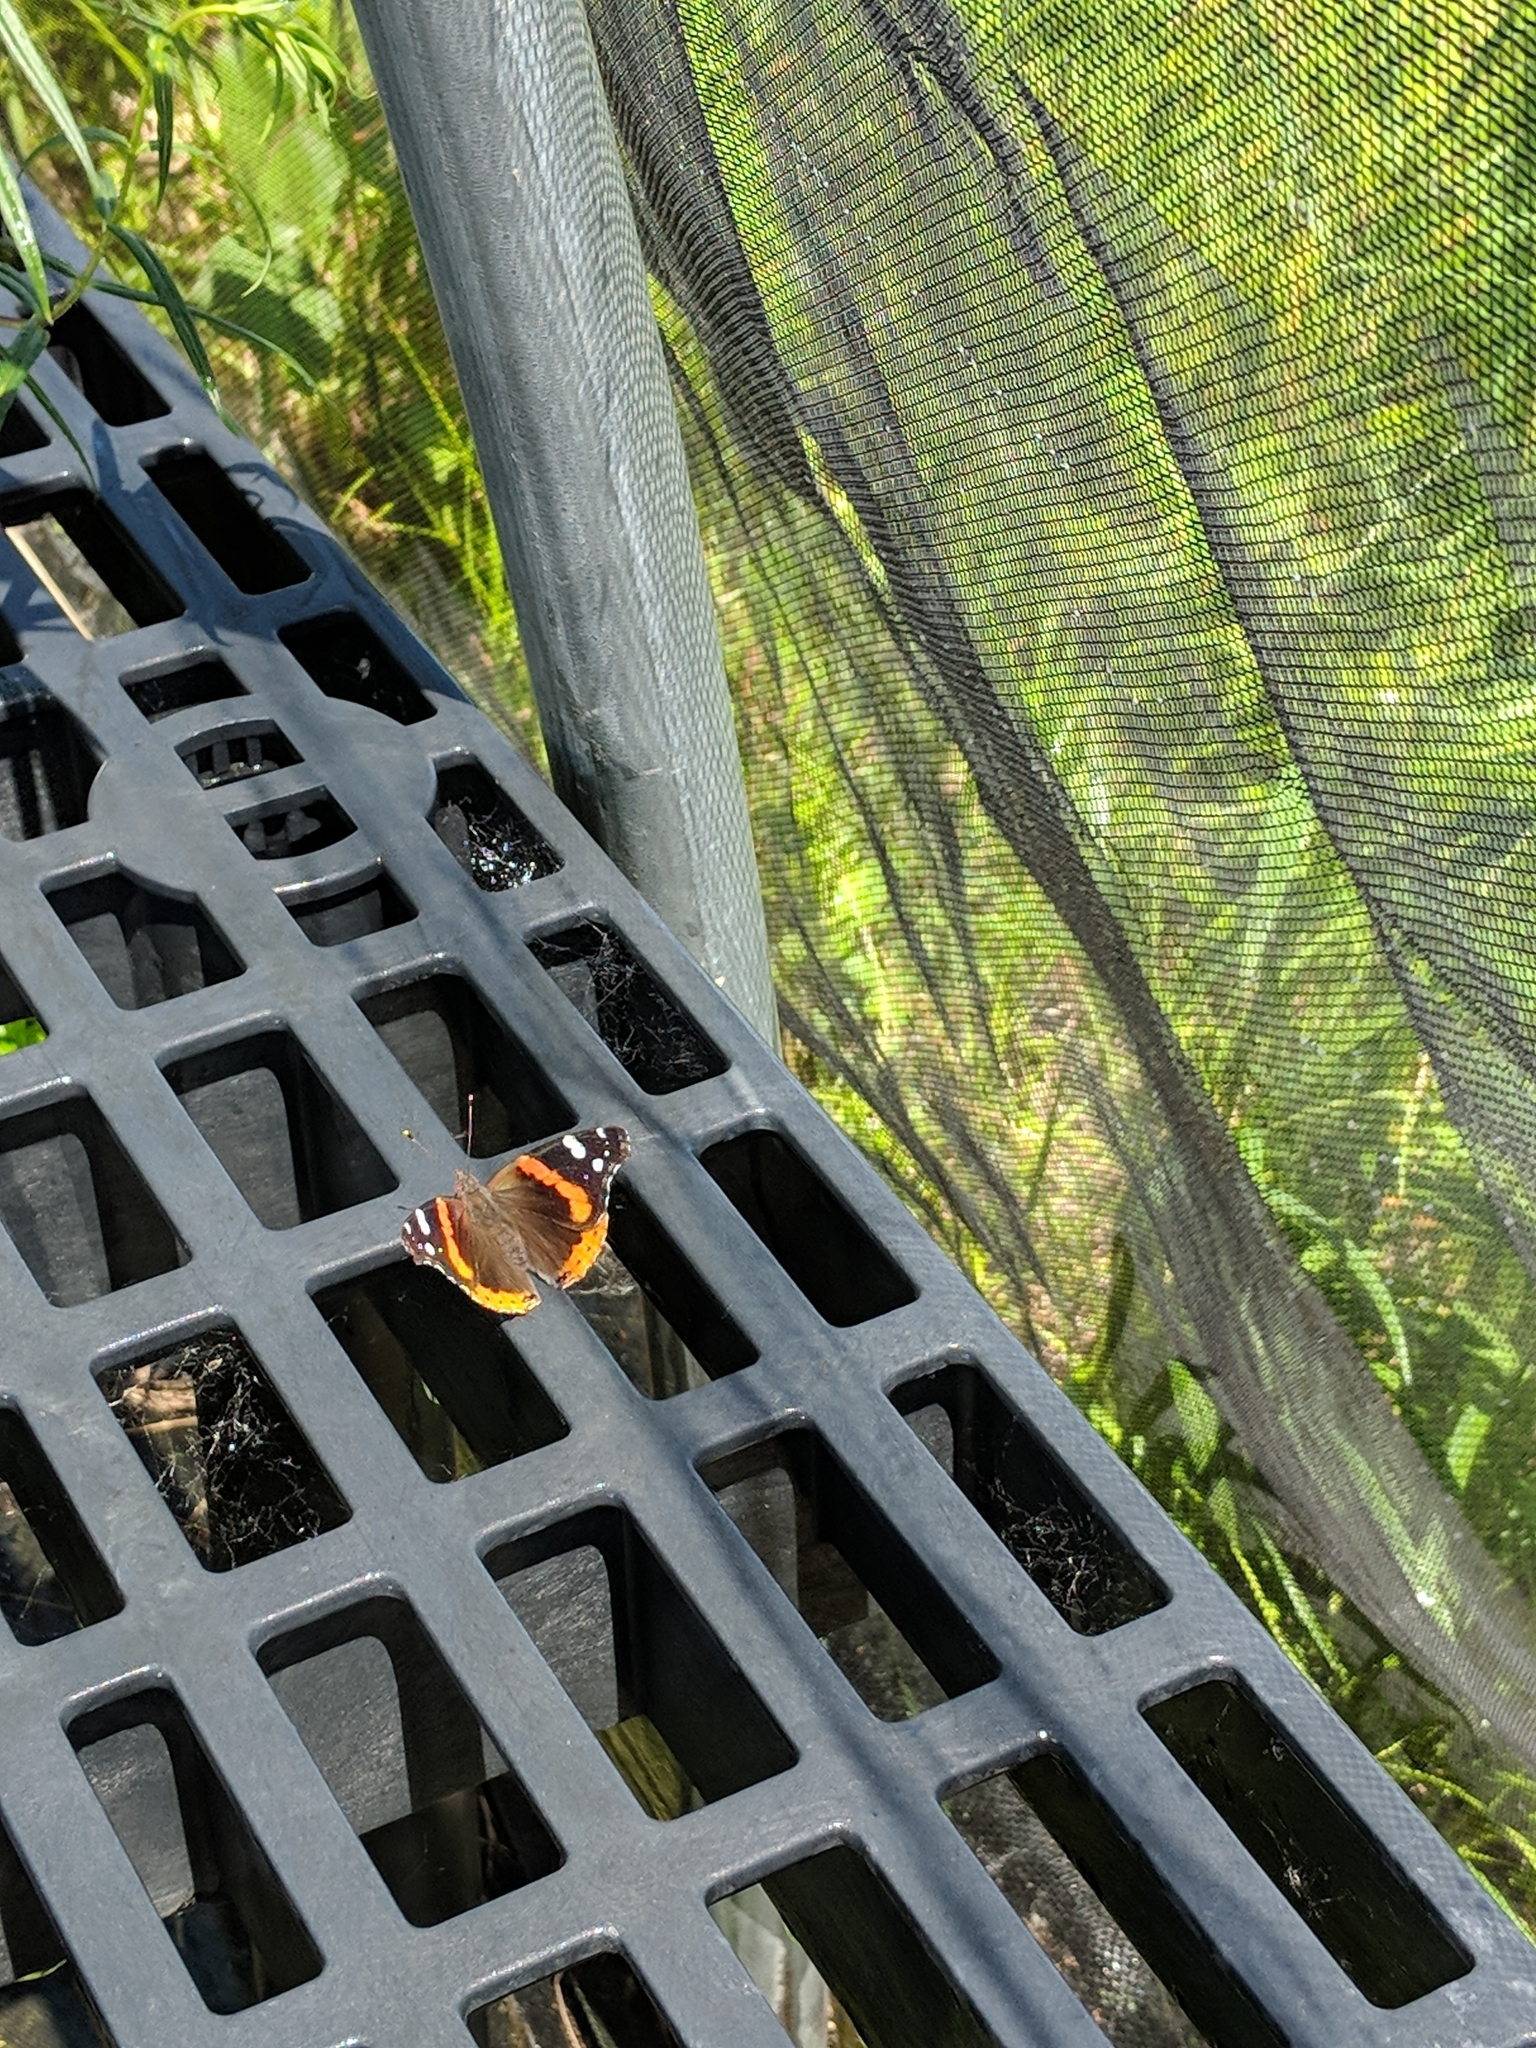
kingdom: Animalia
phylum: Arthropoda
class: Insecta
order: Lepidoptera
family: Nymphalidae
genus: Vanessa
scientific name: Vanessa atalanta
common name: Red admiral
